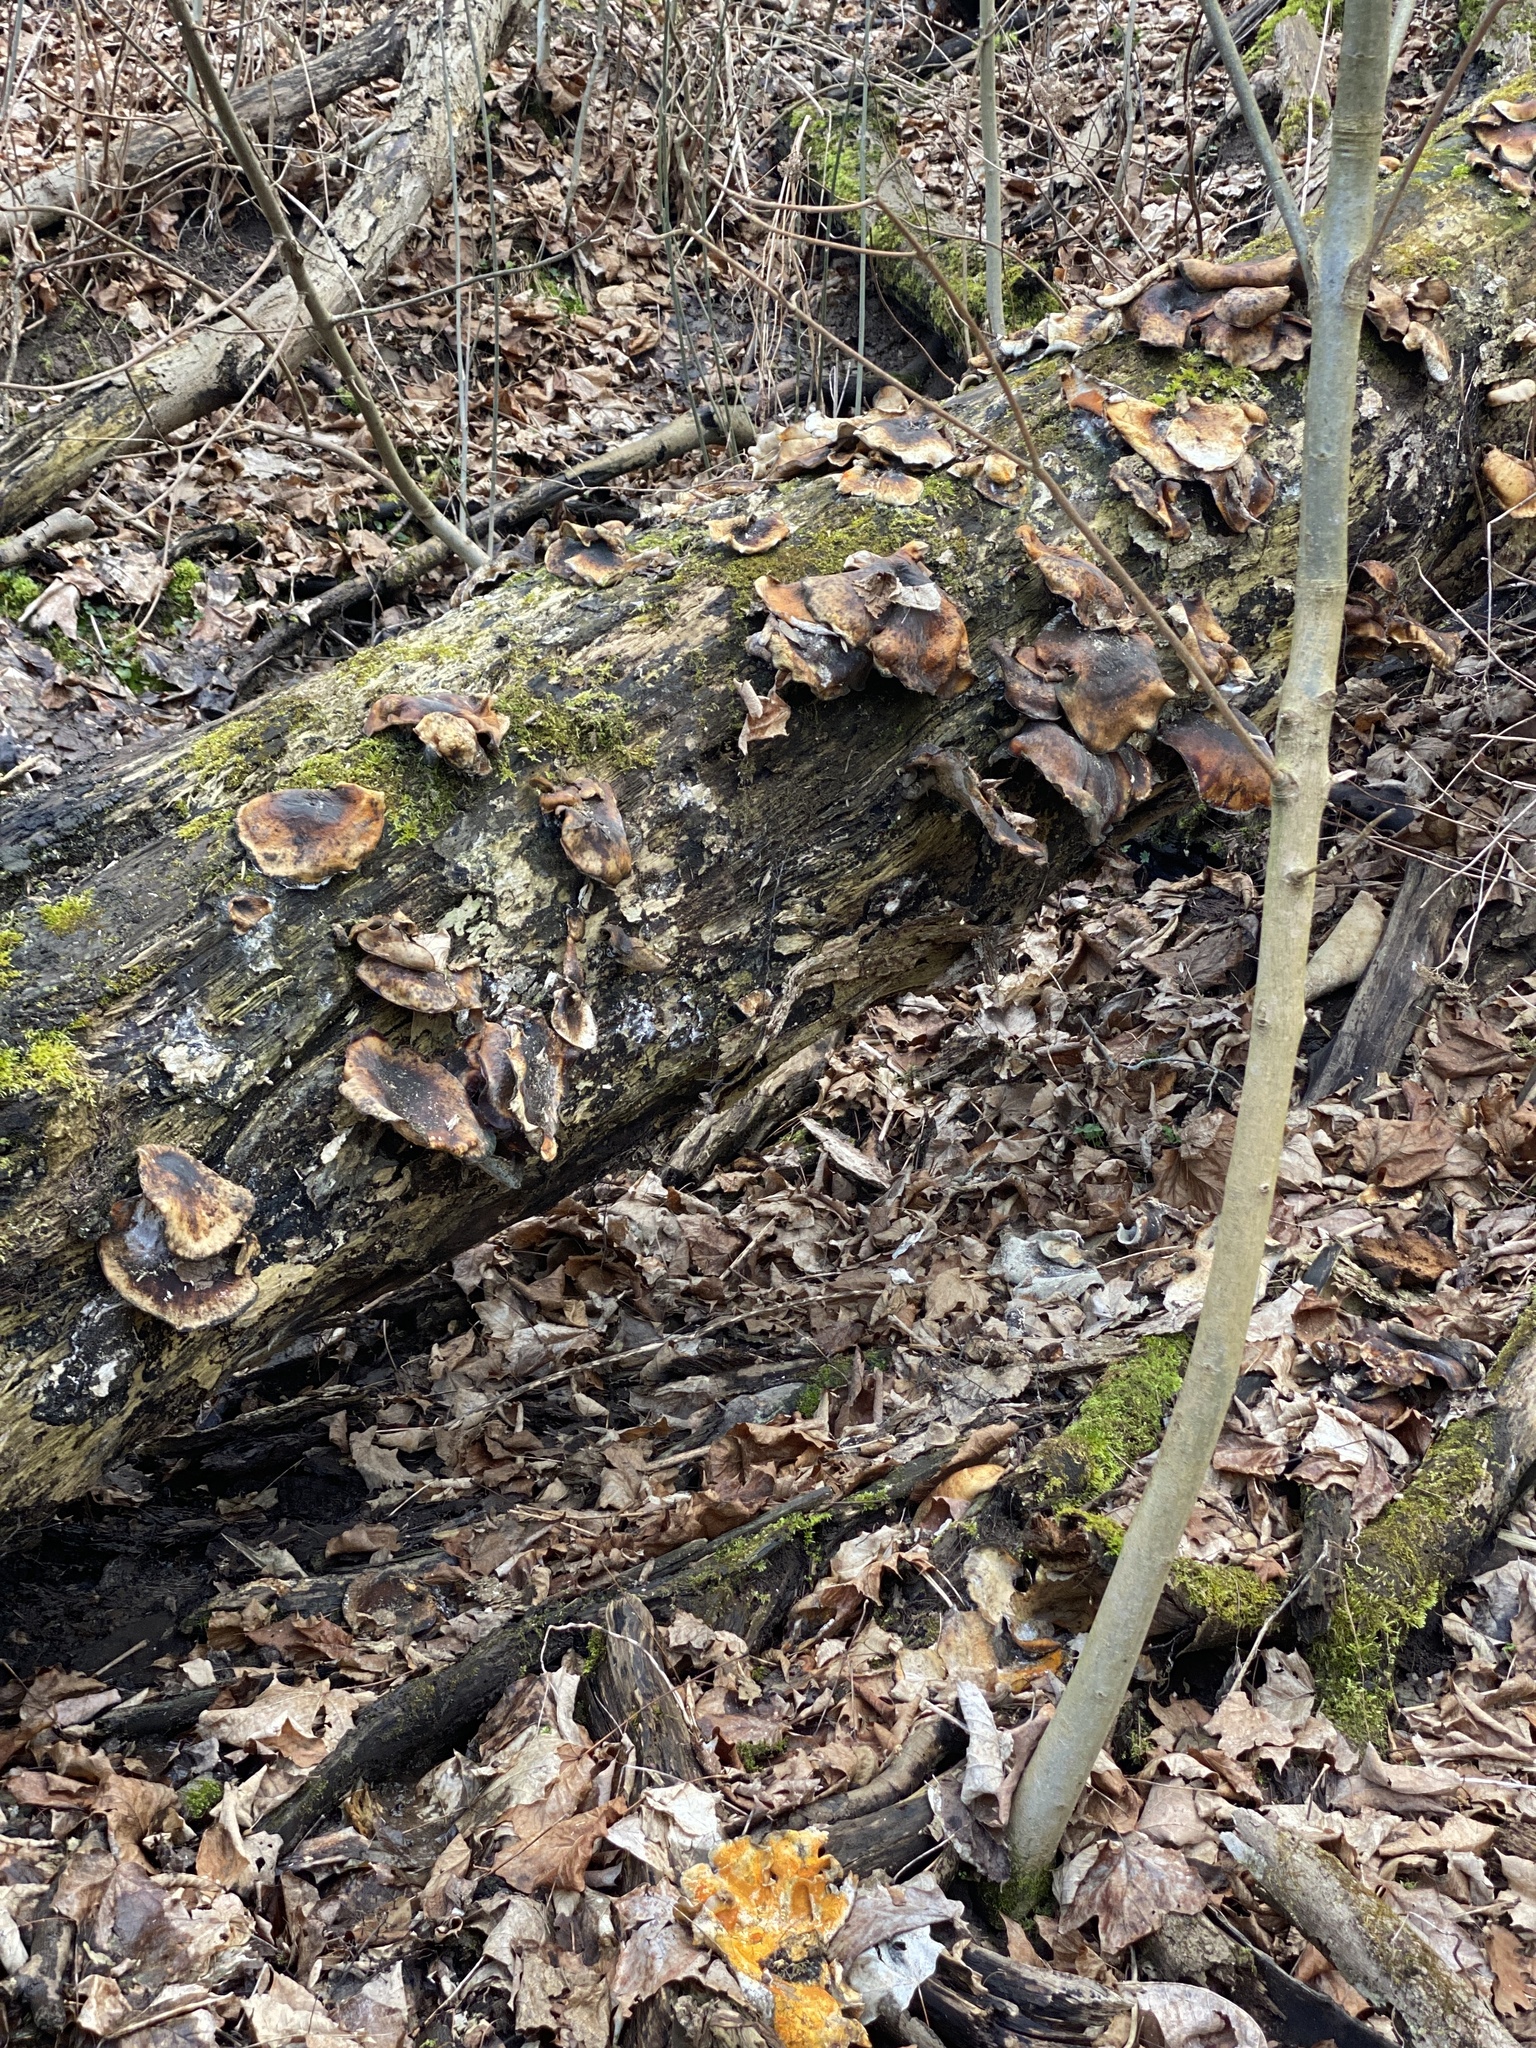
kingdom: Fungi
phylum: Ascomycota
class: Sordariomycetes
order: Hypocreales
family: Hypocreaceae
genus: Hypomyces
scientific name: Hypomyces aurantius
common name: Orange polypore mould
